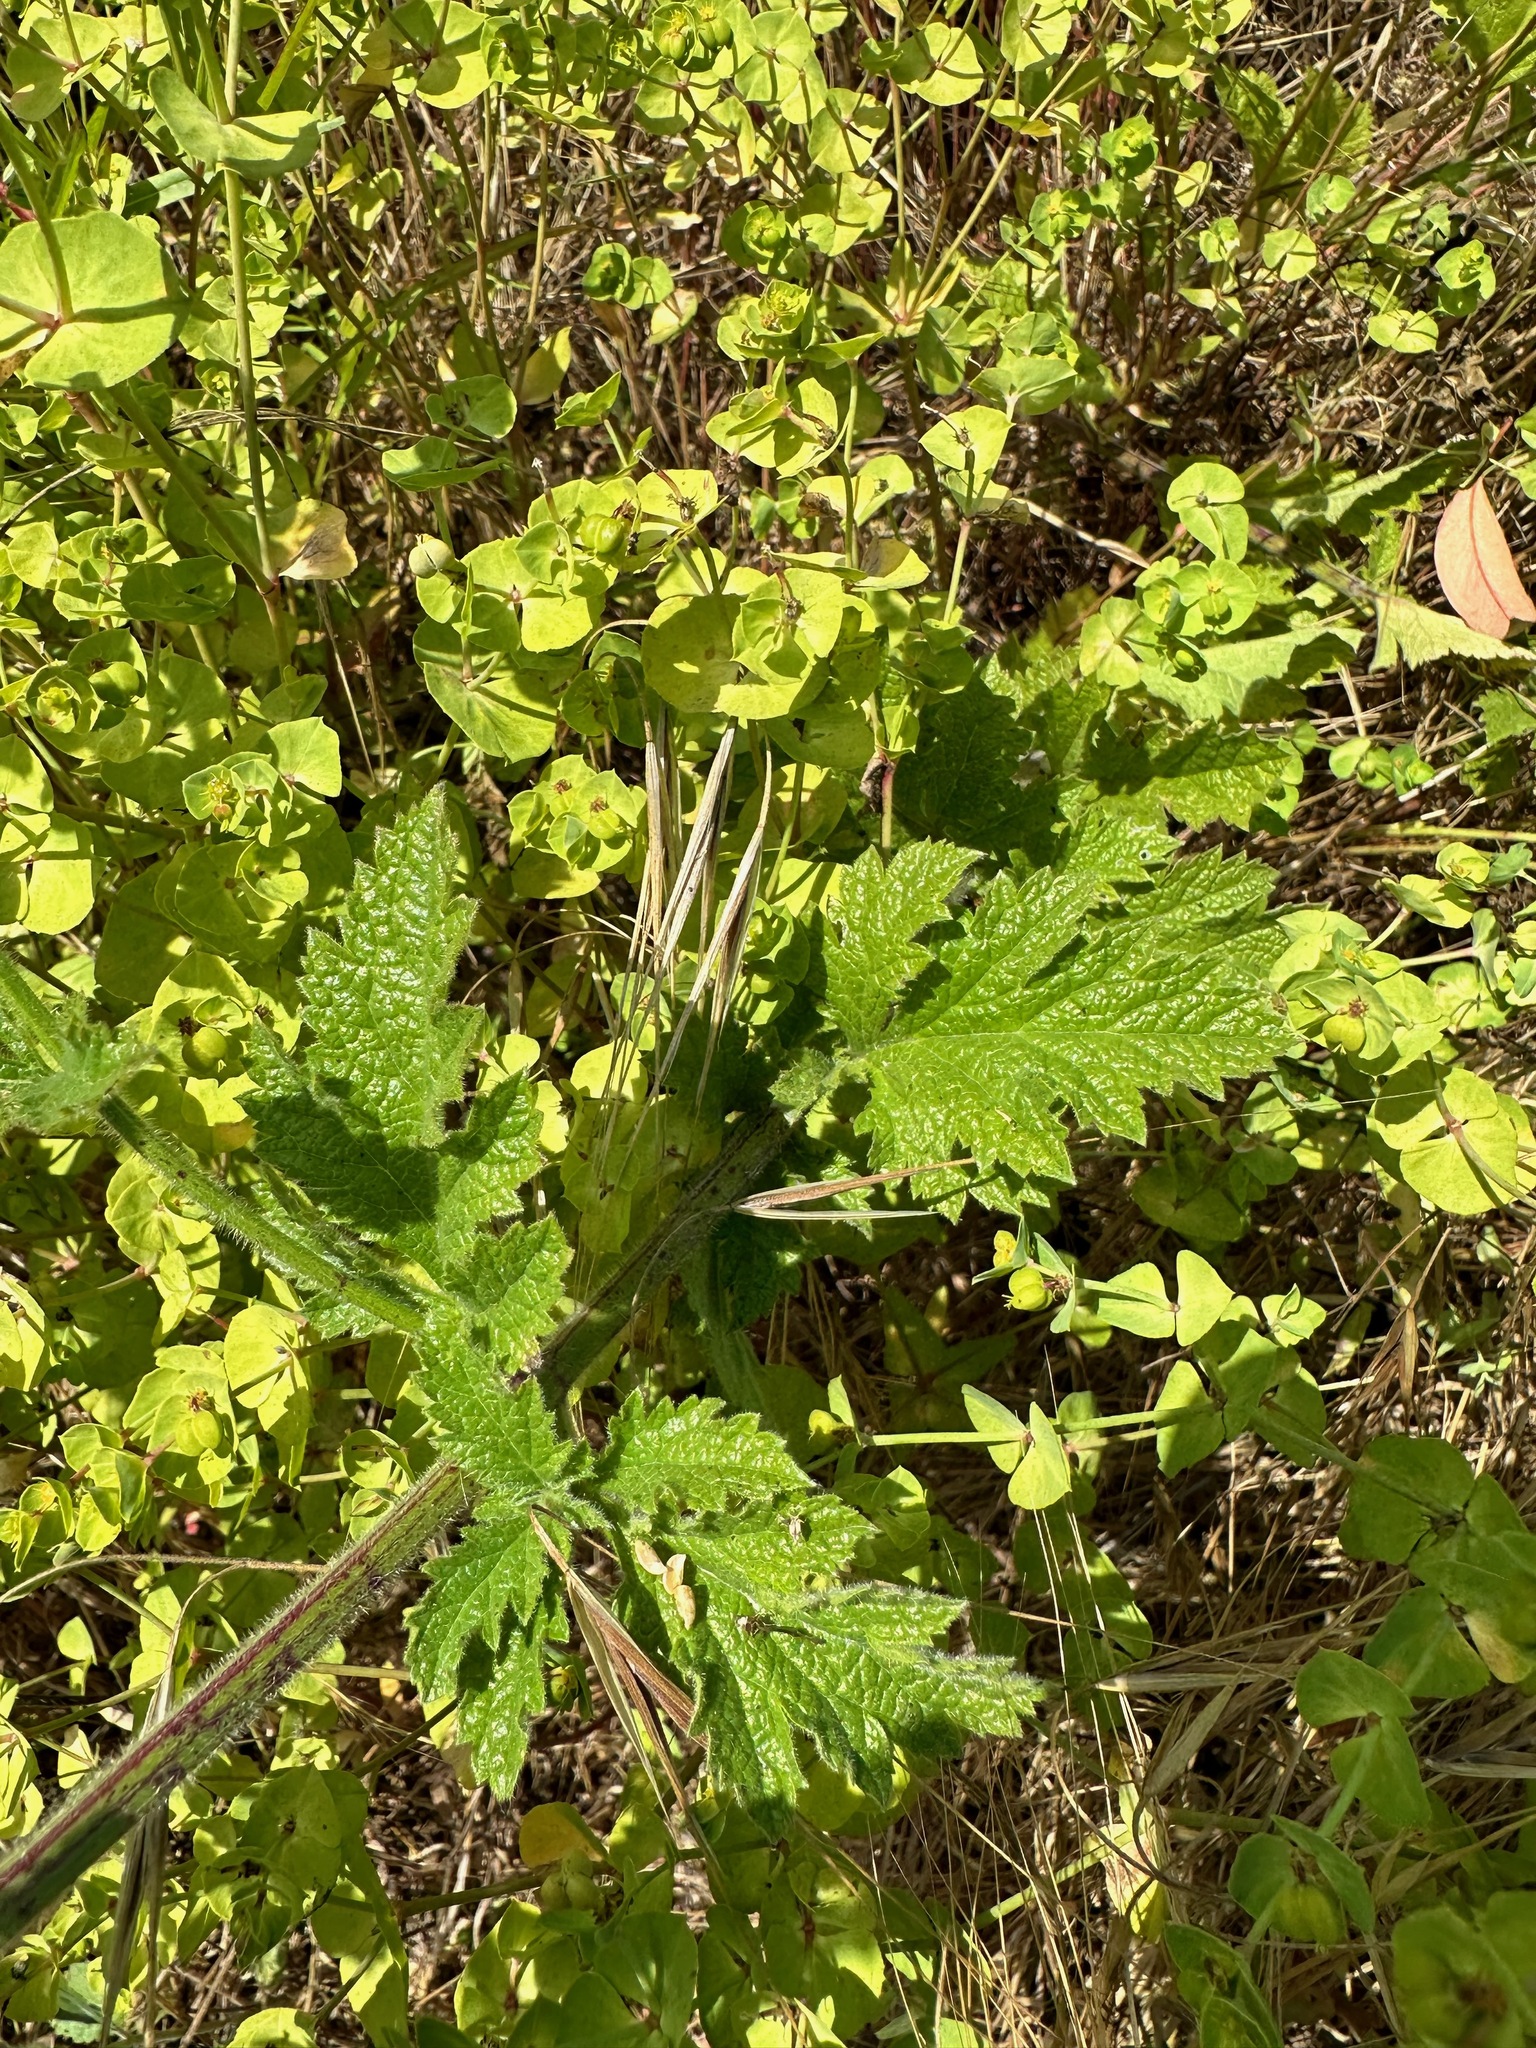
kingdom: Plantae
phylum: Tracheophyta
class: Magnoliopsida
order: Lamiales
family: Verbenaceae
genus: Verbena
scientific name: Verbena lasiostachys
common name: Vervain
